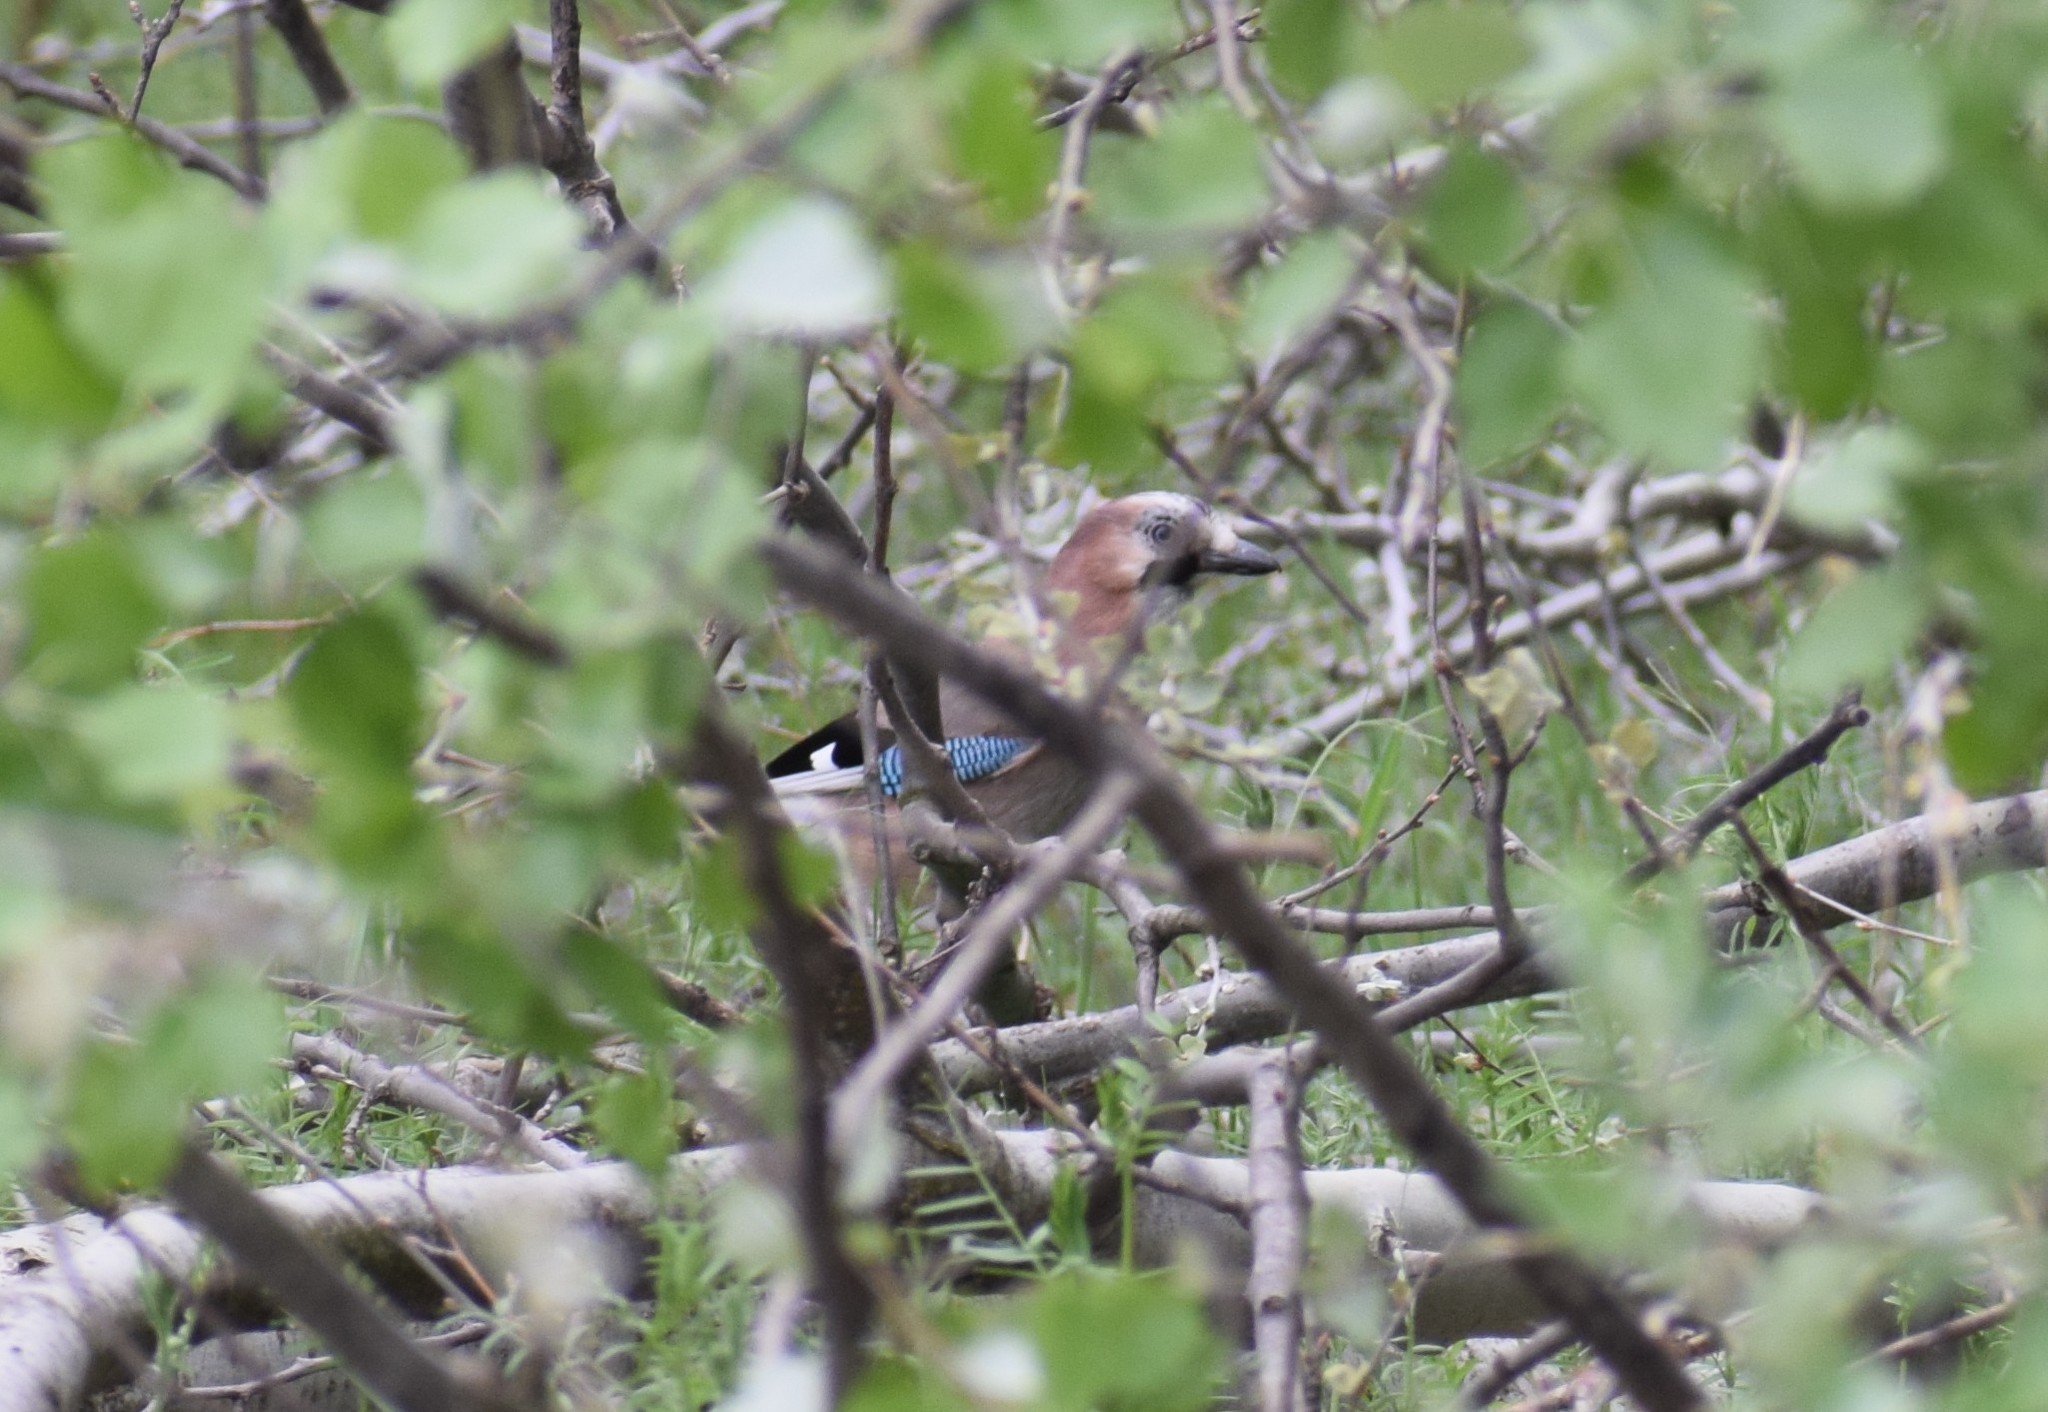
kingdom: Animalia
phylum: Chordata
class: Aves
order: Passeriformes
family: Corvidae
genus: Garrulus
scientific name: Garrulus glandarius
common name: Eurasian jay
